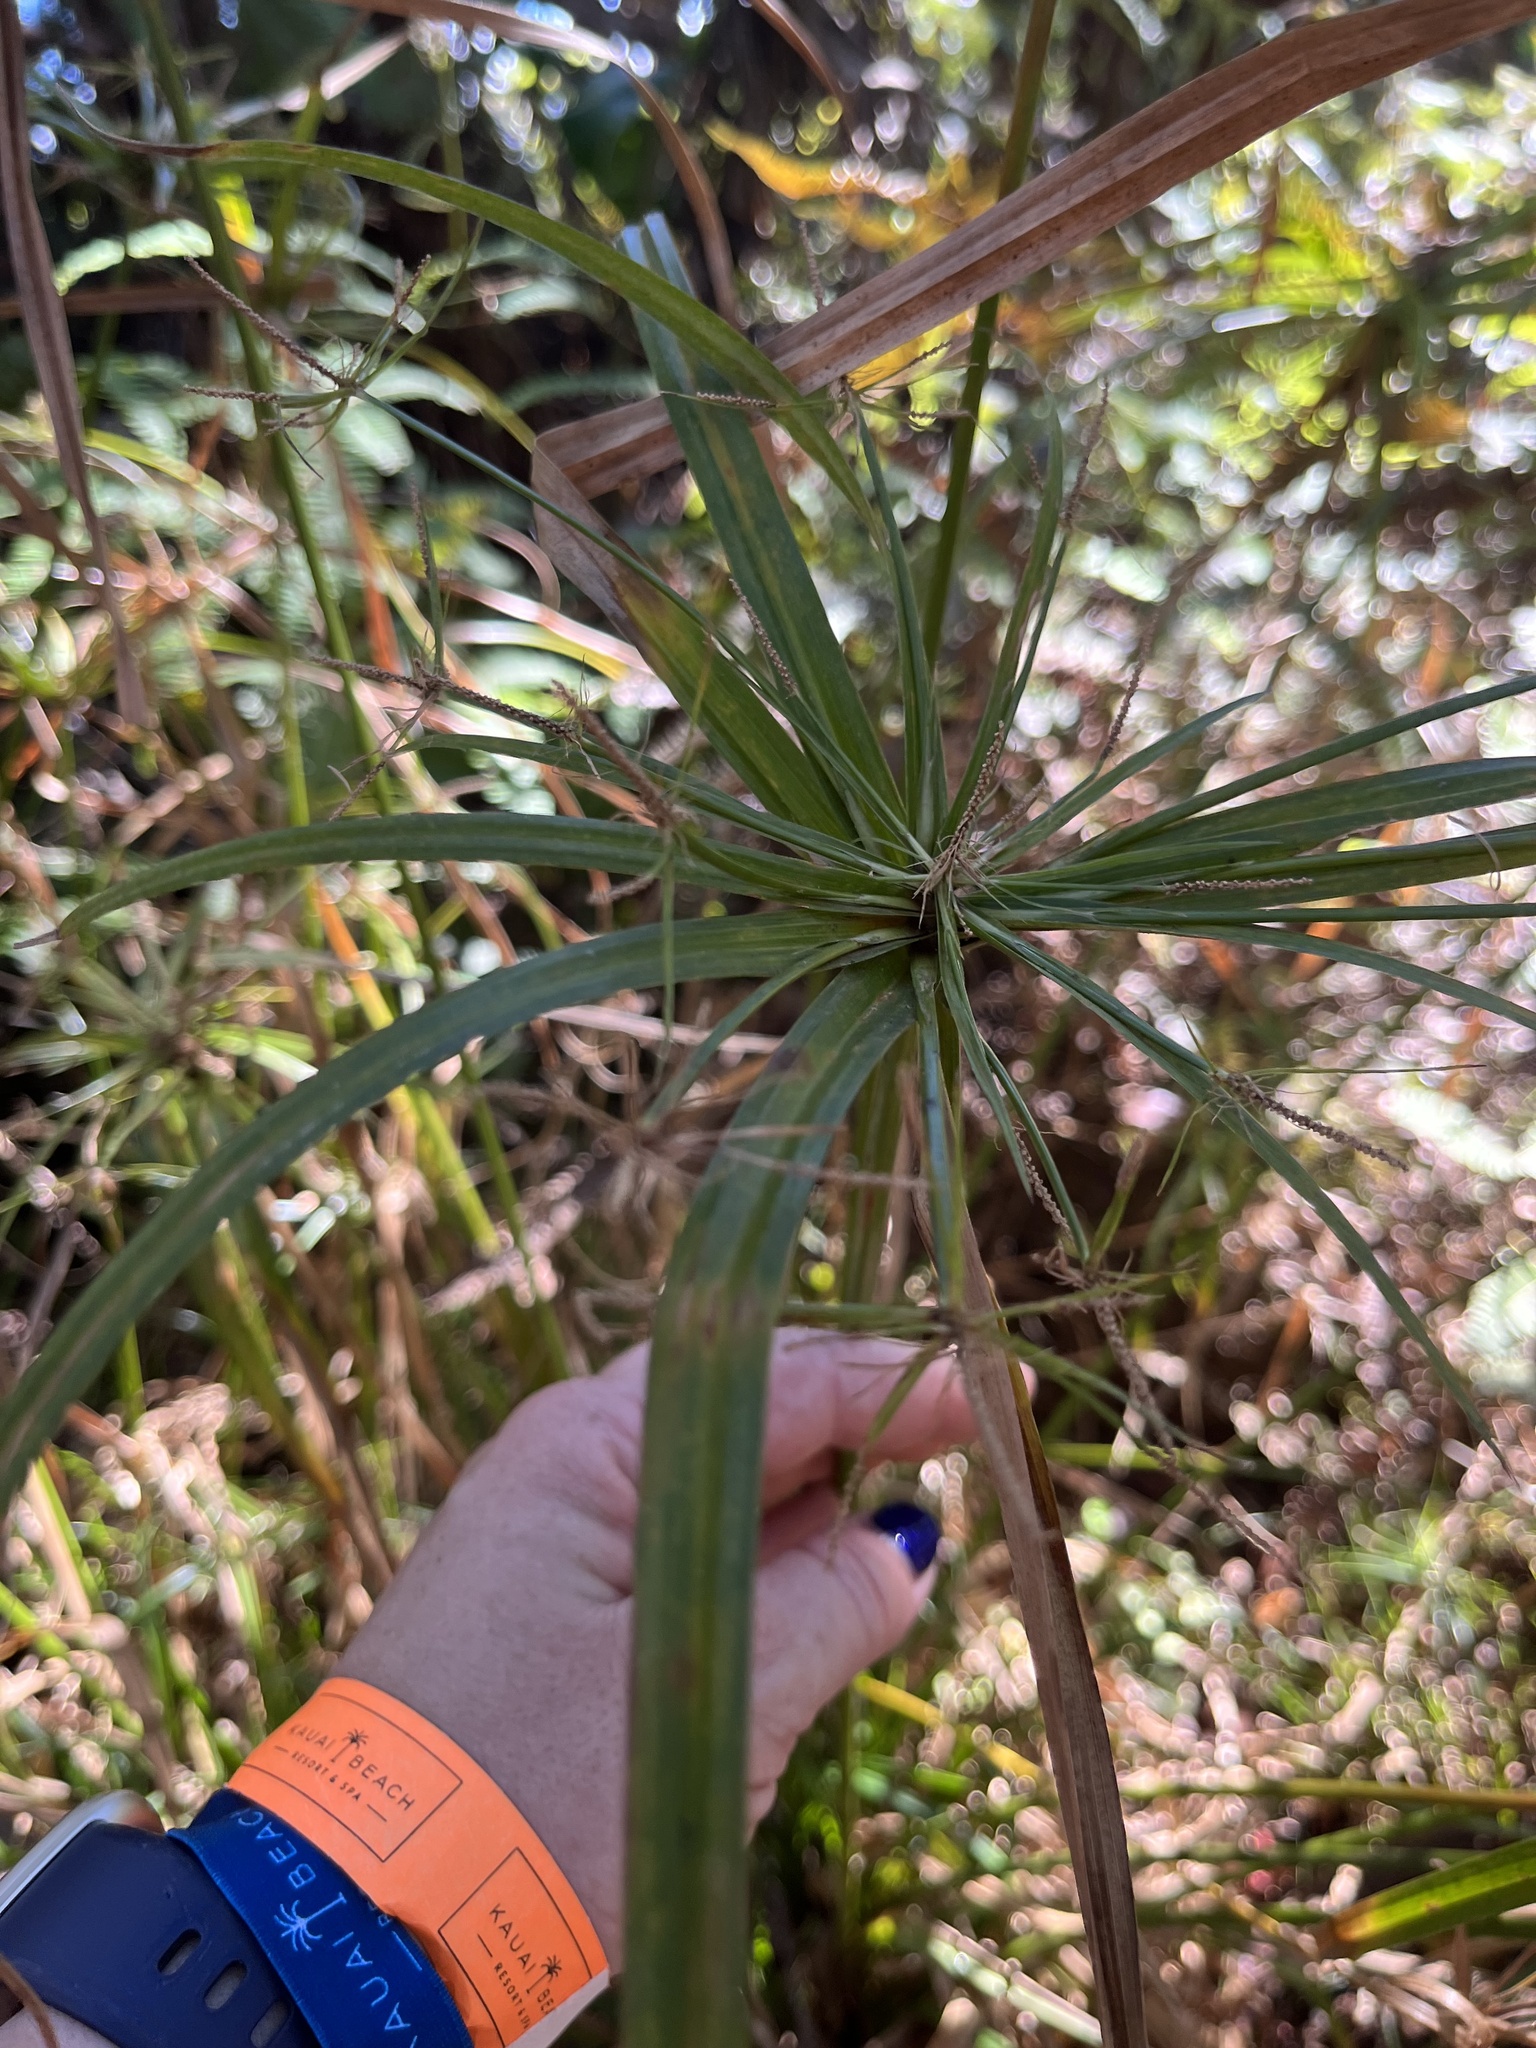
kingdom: Plantae
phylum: Tracheophyta
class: Liliopsida
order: Poales
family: Cyperaceae
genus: Cyperus
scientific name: Cyperus alternifolius
